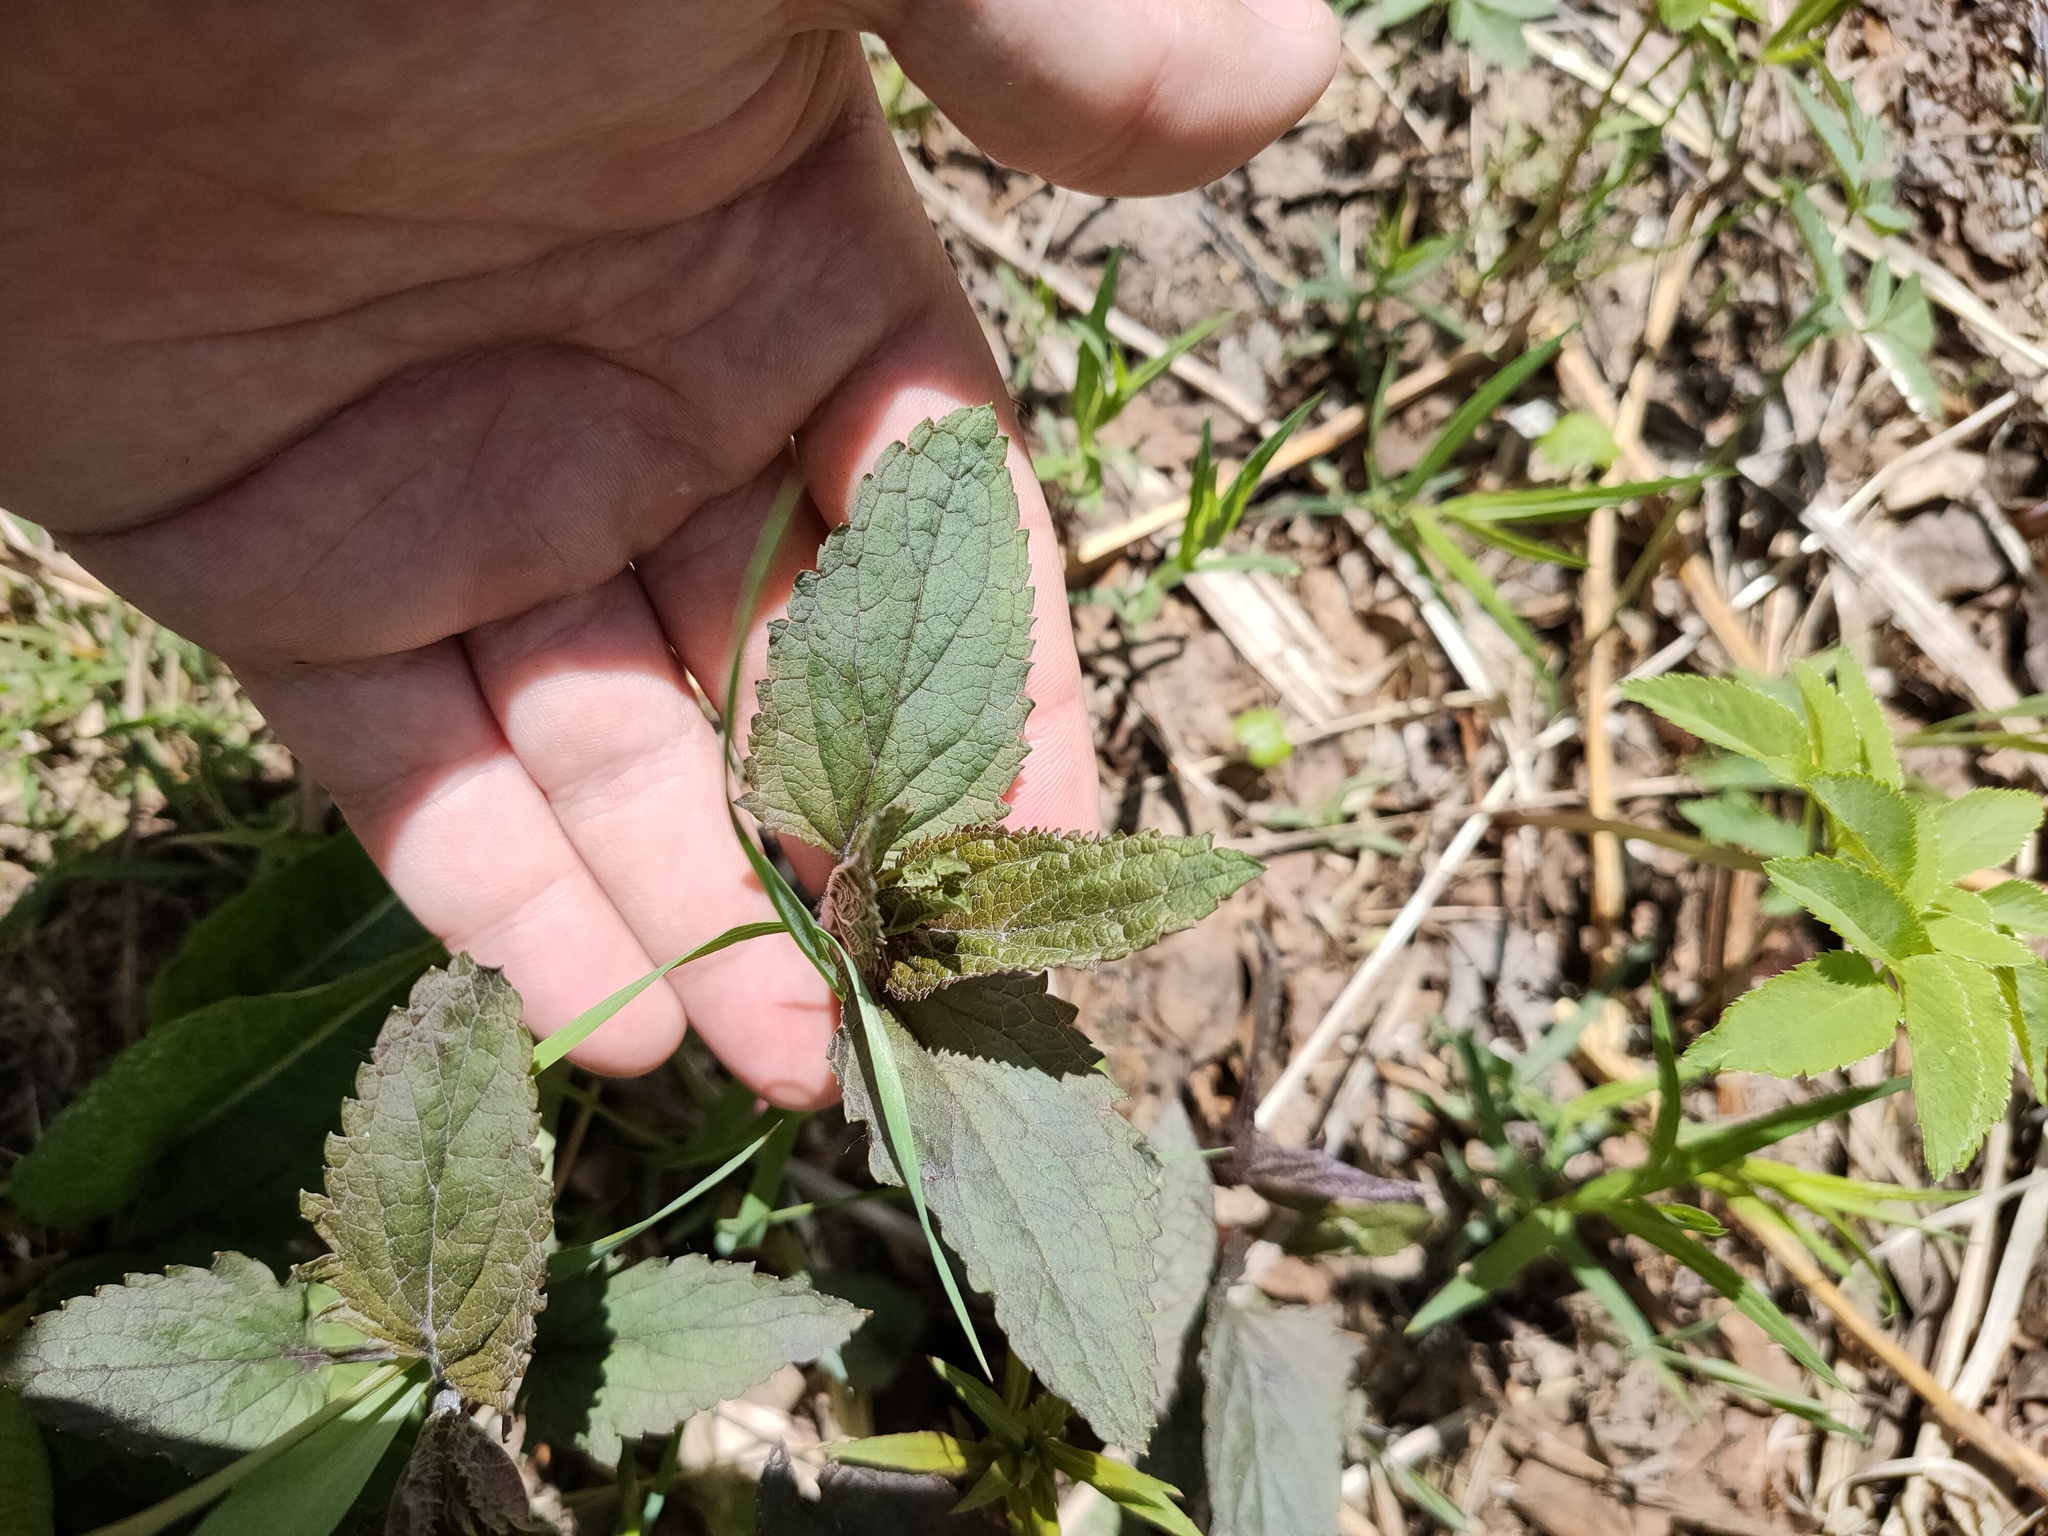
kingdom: Plantae
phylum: Tracheophyta
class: Magnoliopsida
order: Lamiales
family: Scrophulariaceae
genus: Scrophularia
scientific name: Scrophularia nodosa
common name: Common figwort
